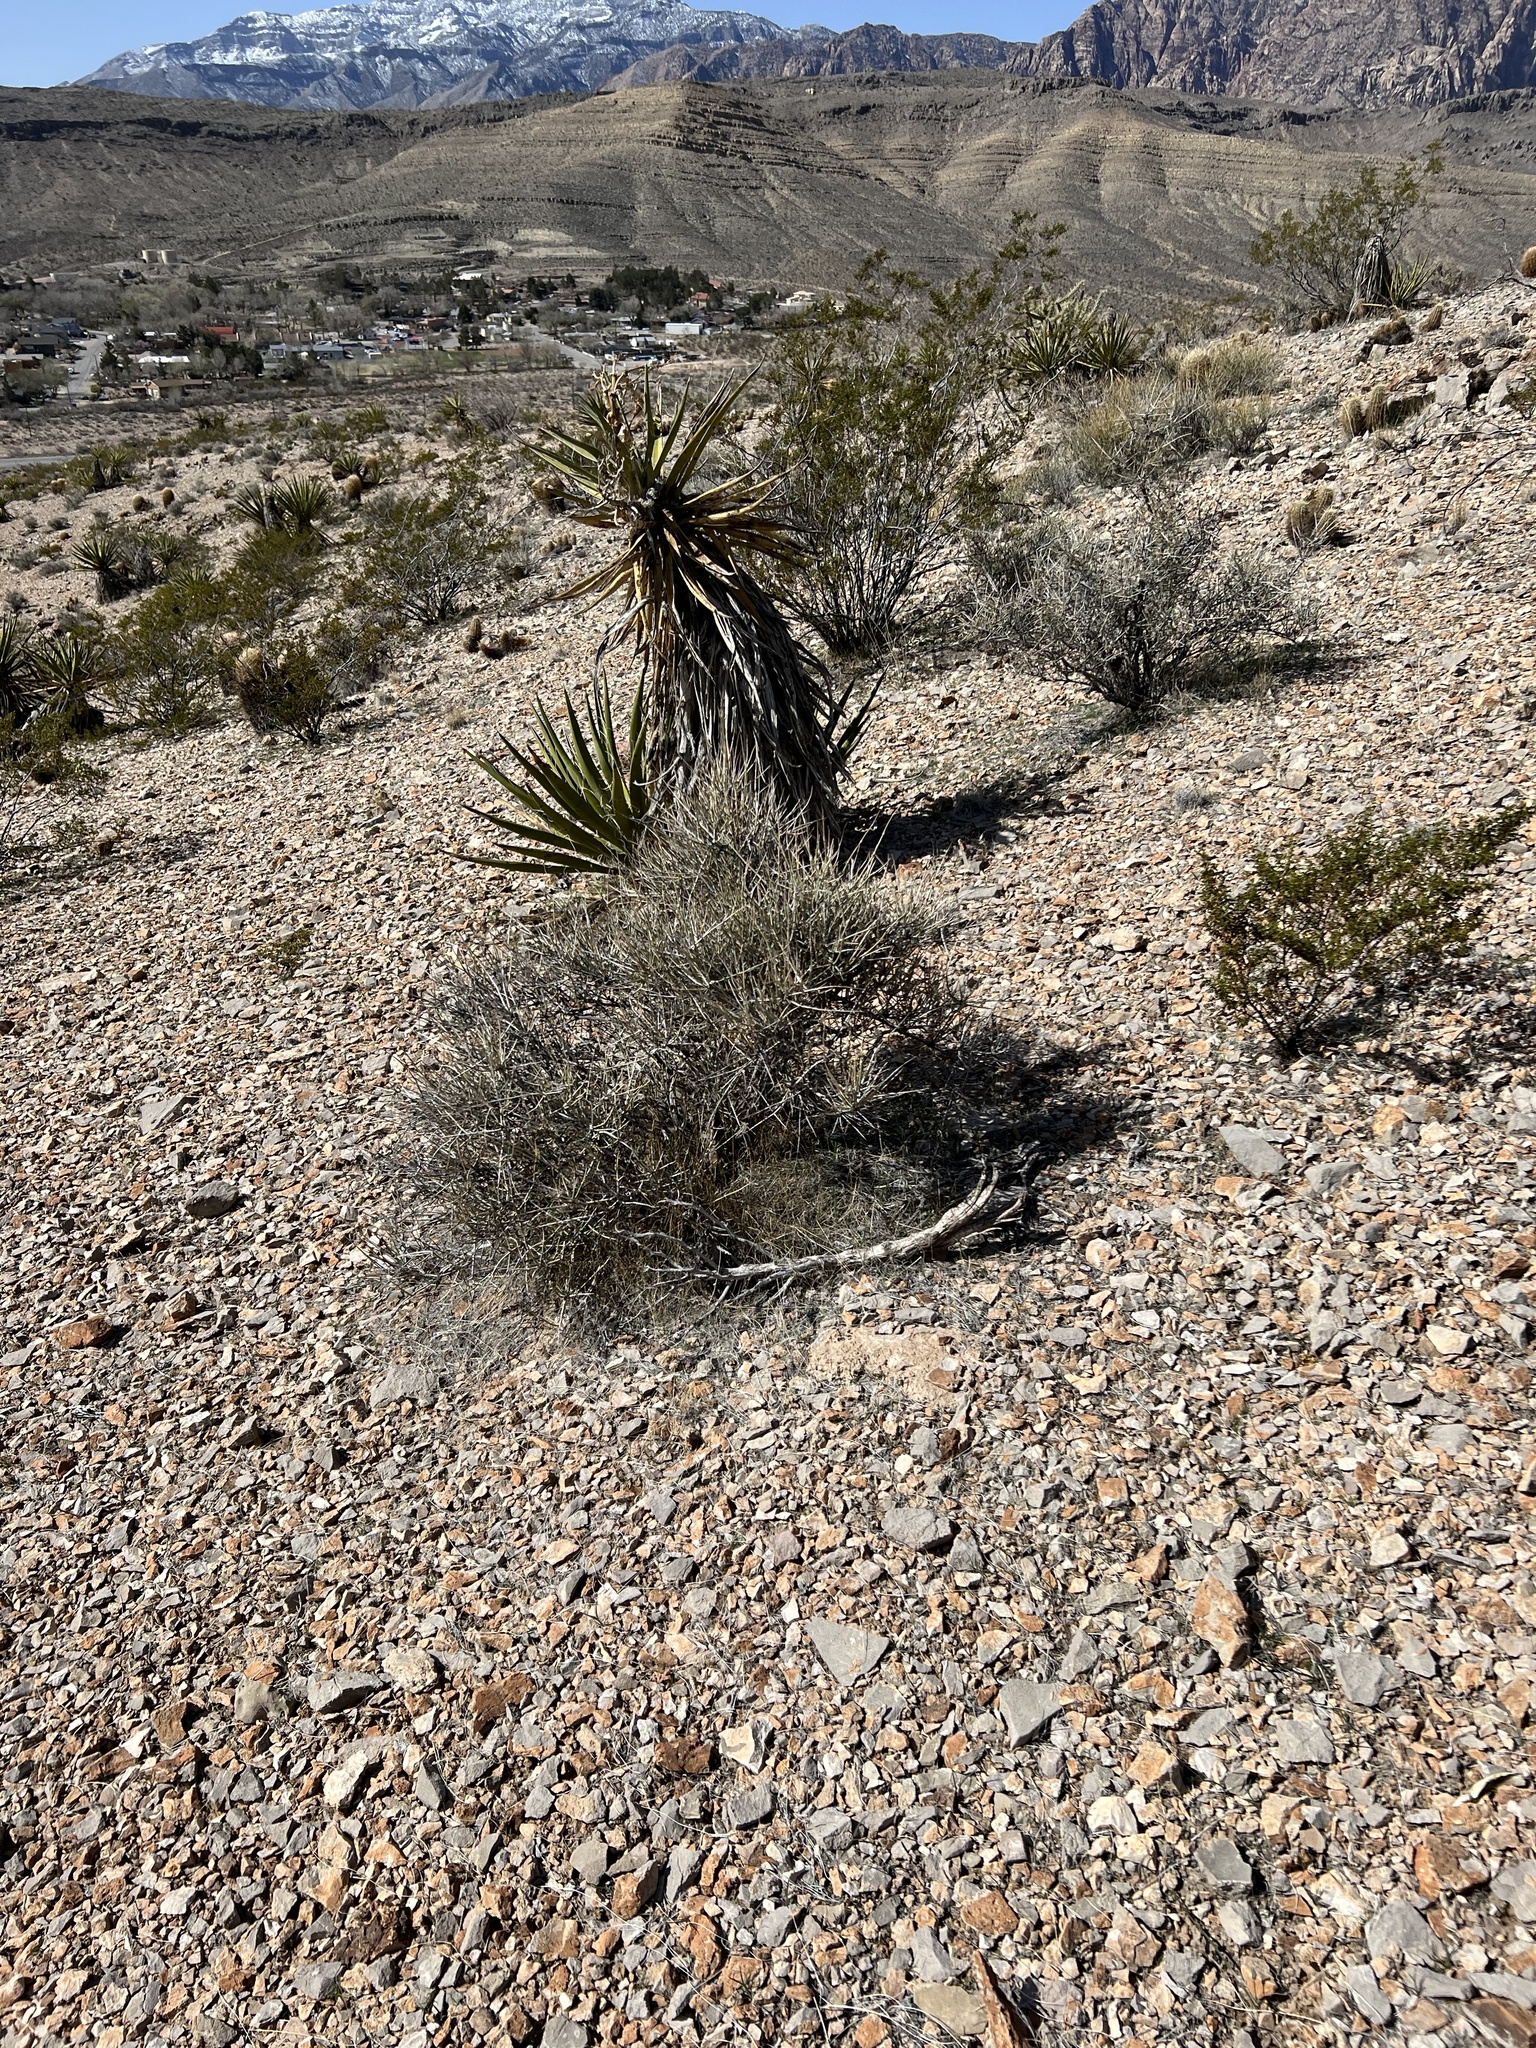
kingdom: Plantae
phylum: Tracheophyta
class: Gnetopsida
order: Ephedrales
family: Ephedraceae
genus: Ephedra
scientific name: Ephedra nevadensis
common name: Gray ephedra
